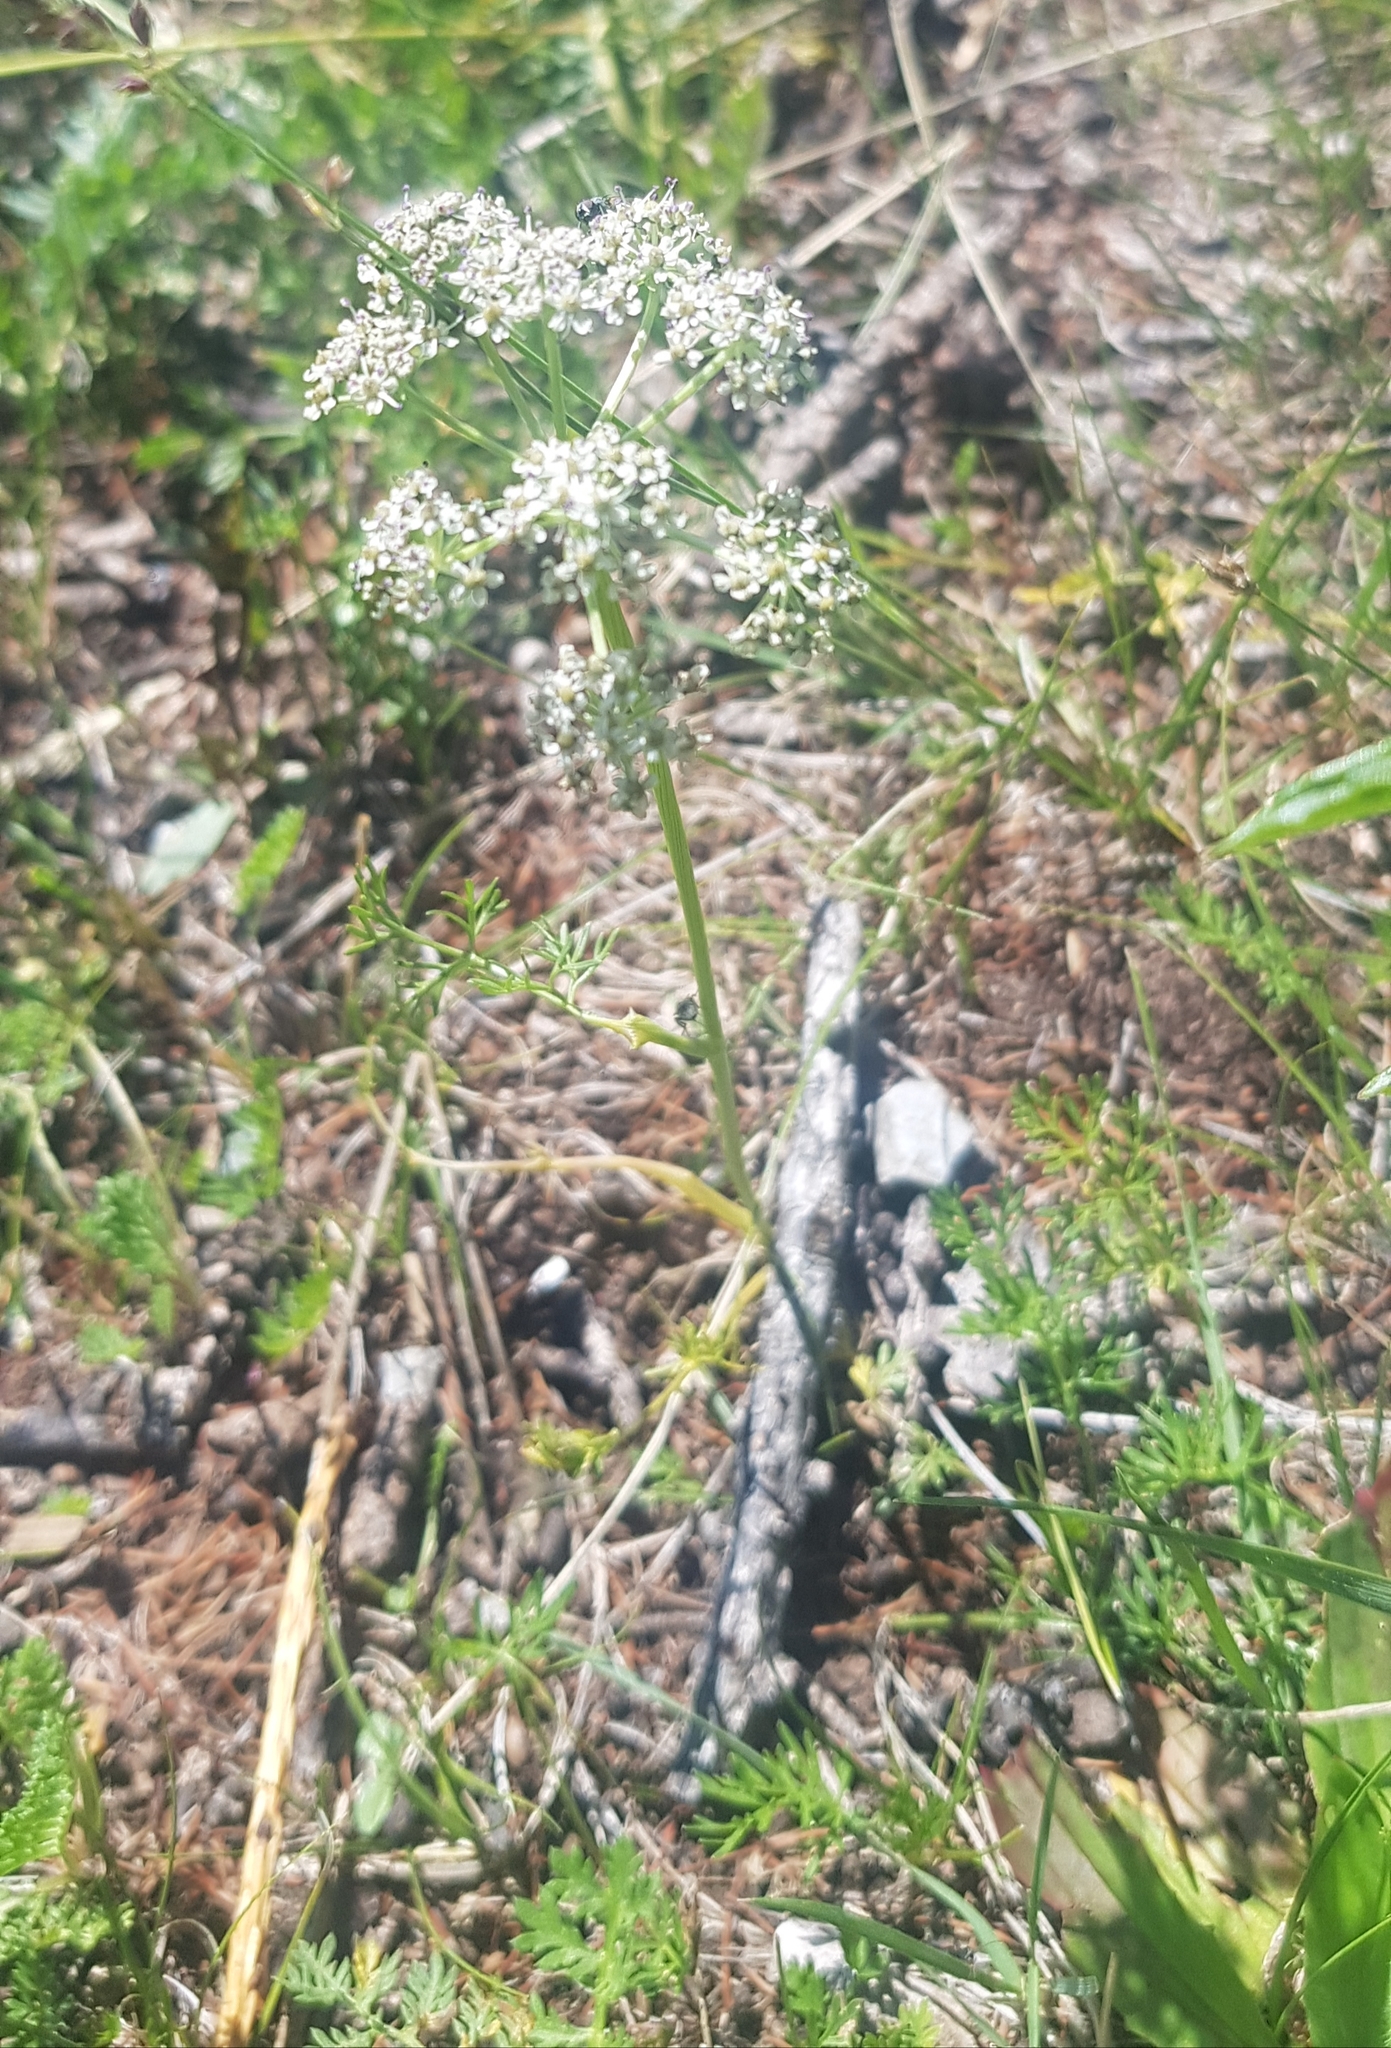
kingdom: Plantae
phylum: Tracheophyta
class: Magnoliopsida
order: Apiales
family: Apiaceae
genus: Peucedanum
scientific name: Peucedanum vaginatum
